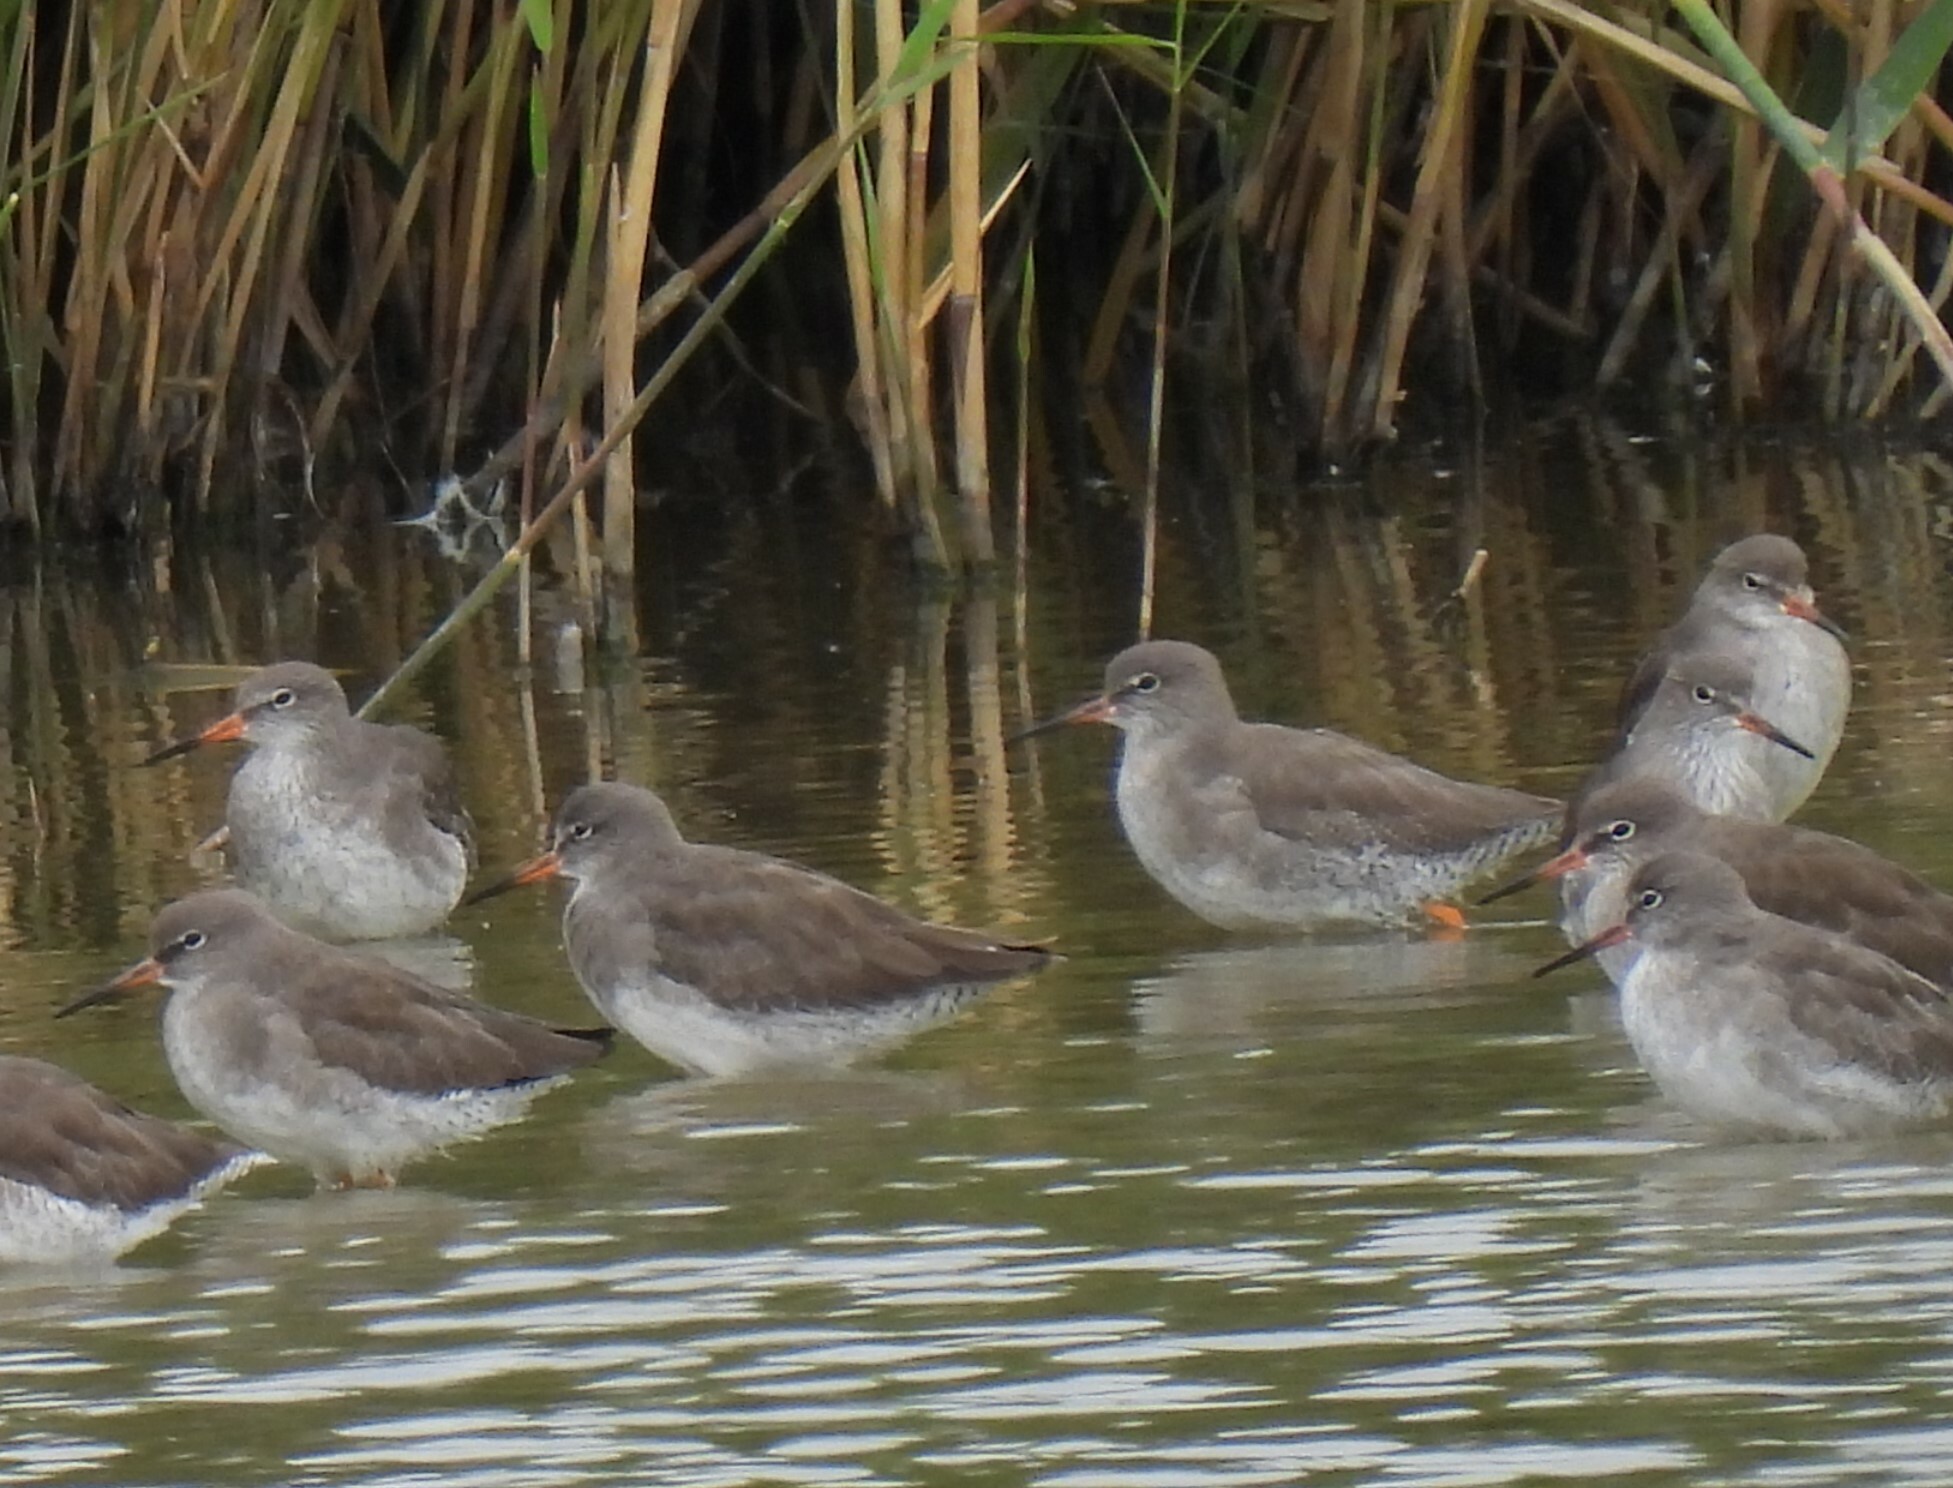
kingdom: Animalia
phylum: Chordata
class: Aves
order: Charadriiformes
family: Scolopacidae
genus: Tringa
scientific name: Tringa totanus
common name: Common redshank
